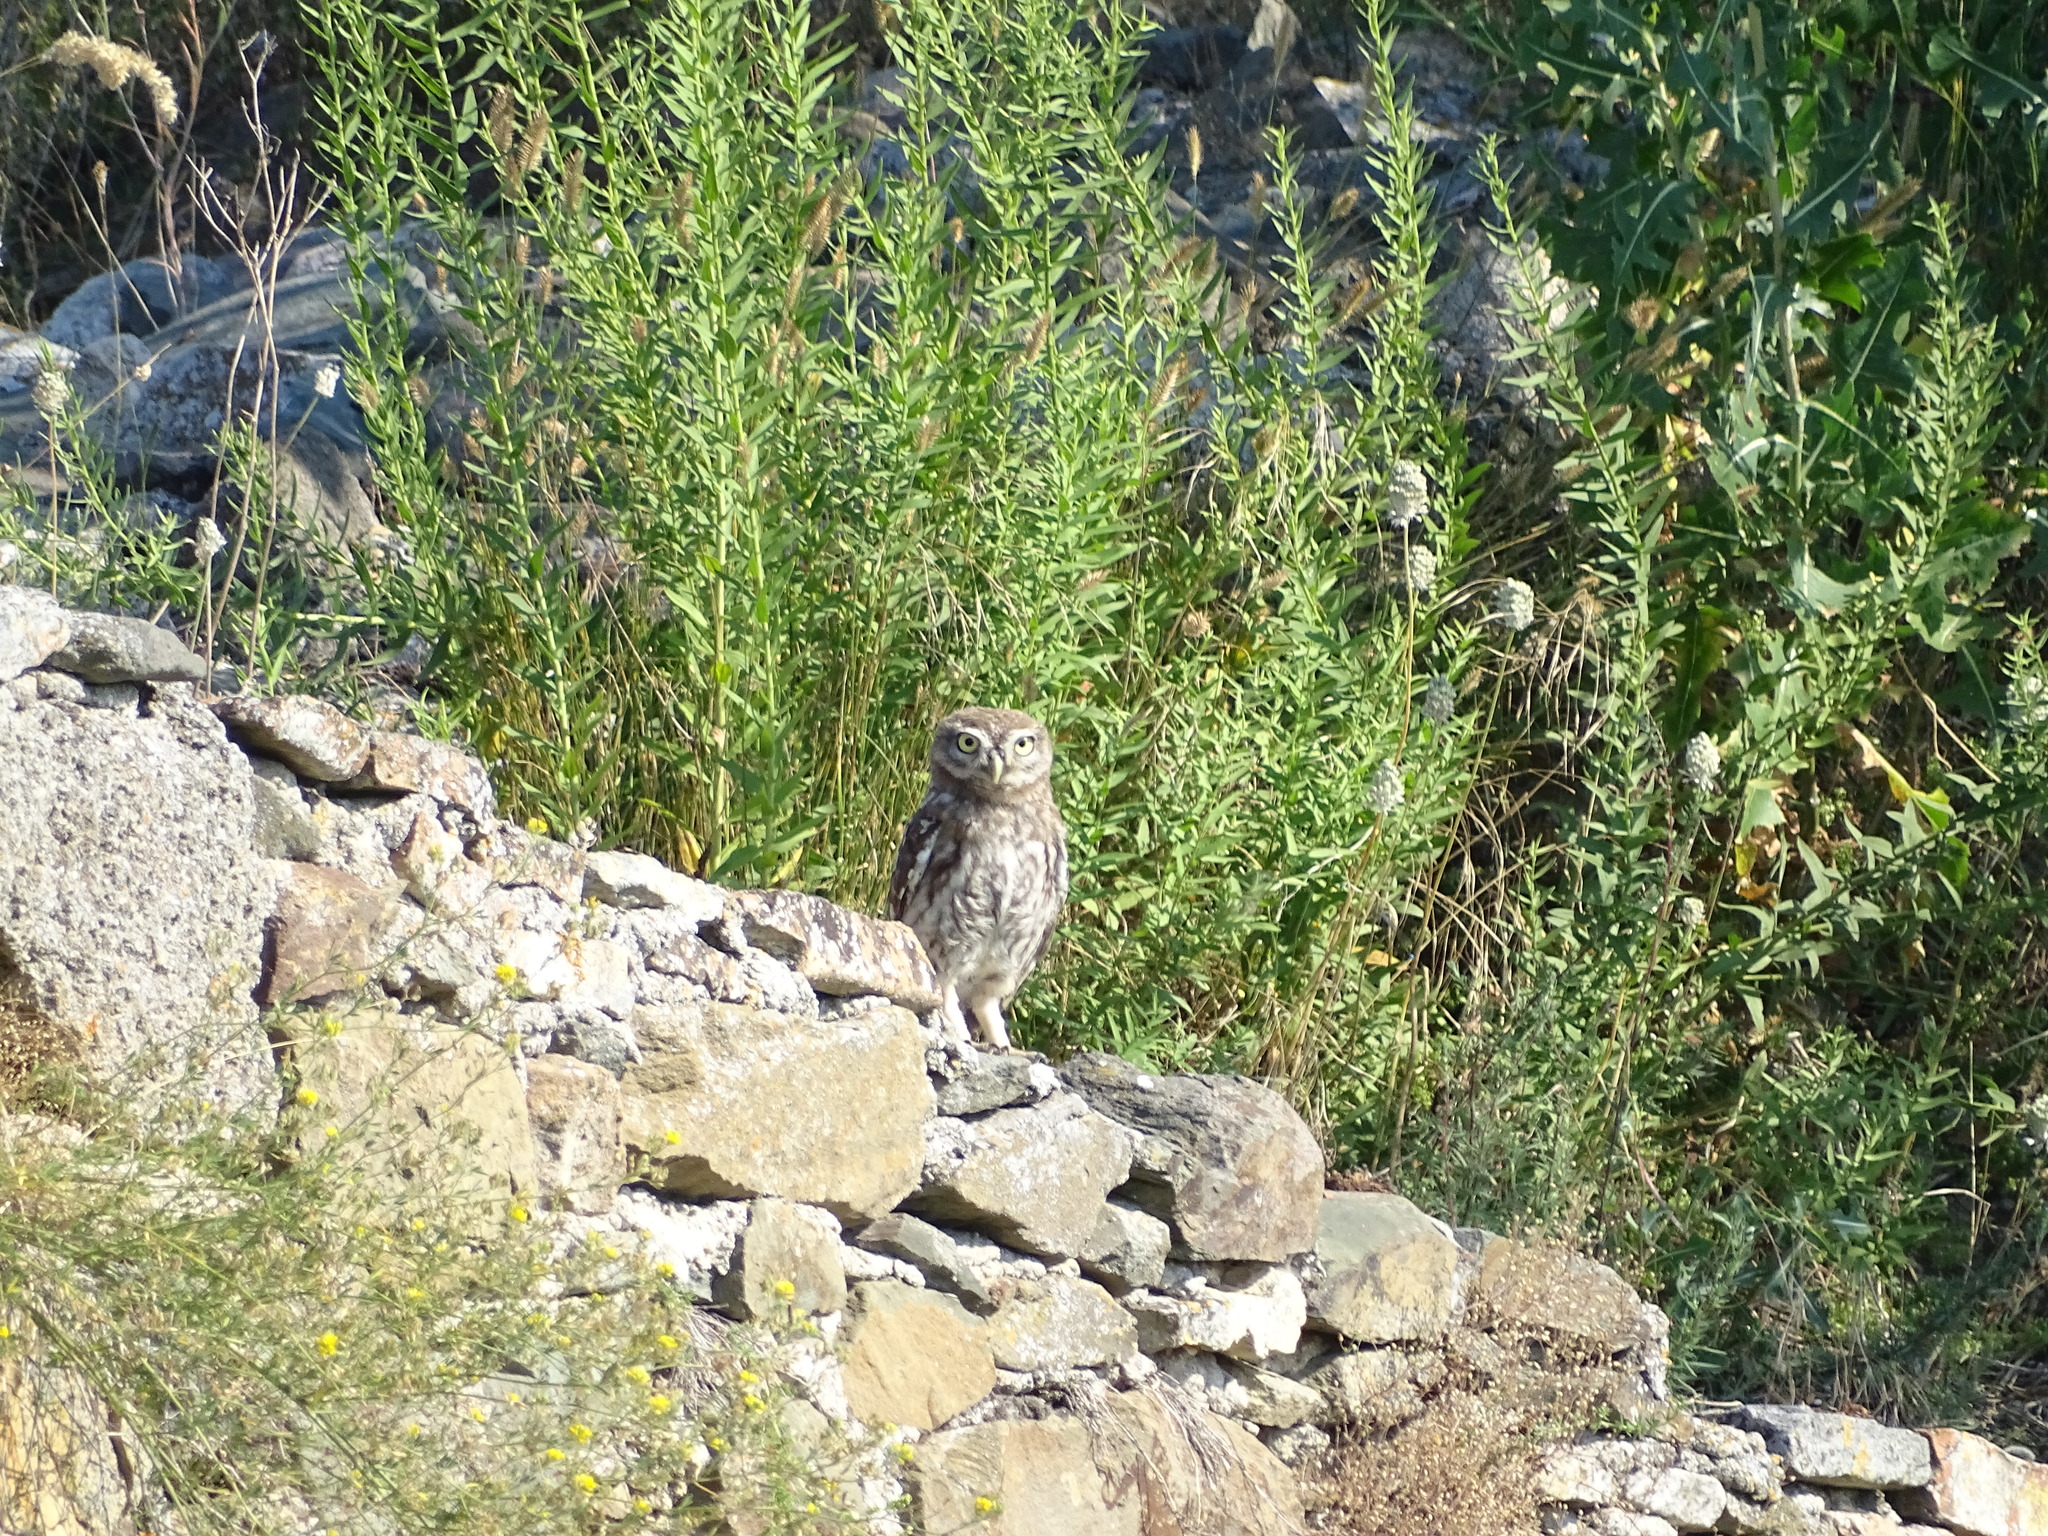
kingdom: Animalia
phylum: Chordata
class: Aves
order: Strigiformes
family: Strigidae
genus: Athene
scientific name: Athene noctua
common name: Little owl
